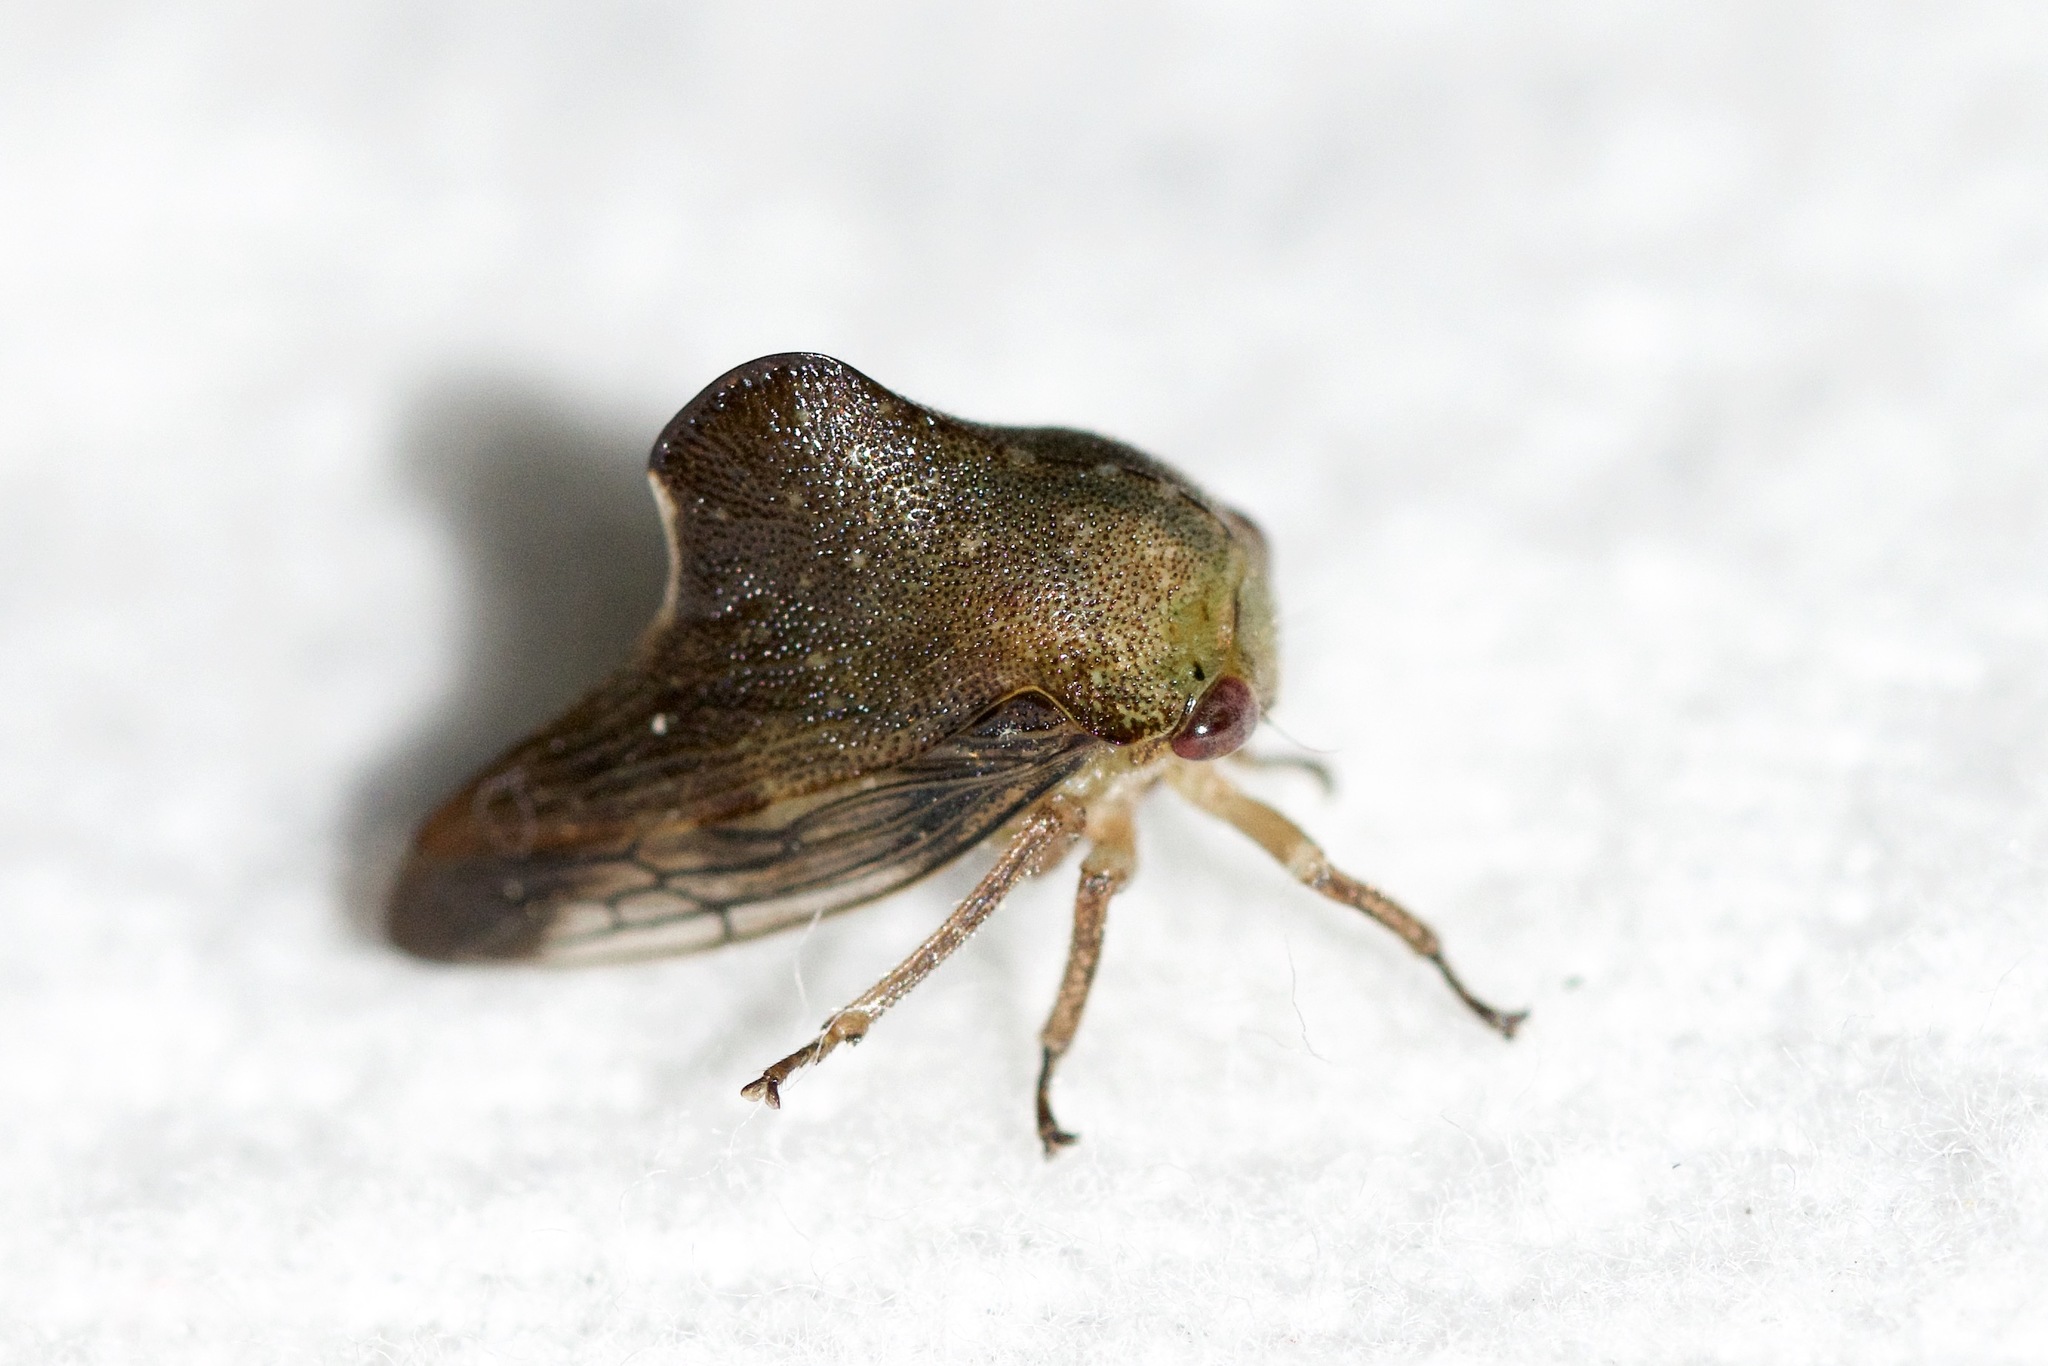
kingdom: Animalia
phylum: Arthropoda
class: Insecta
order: Hemiptera
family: Membracidae
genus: Telamona
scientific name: Telamona monticola
